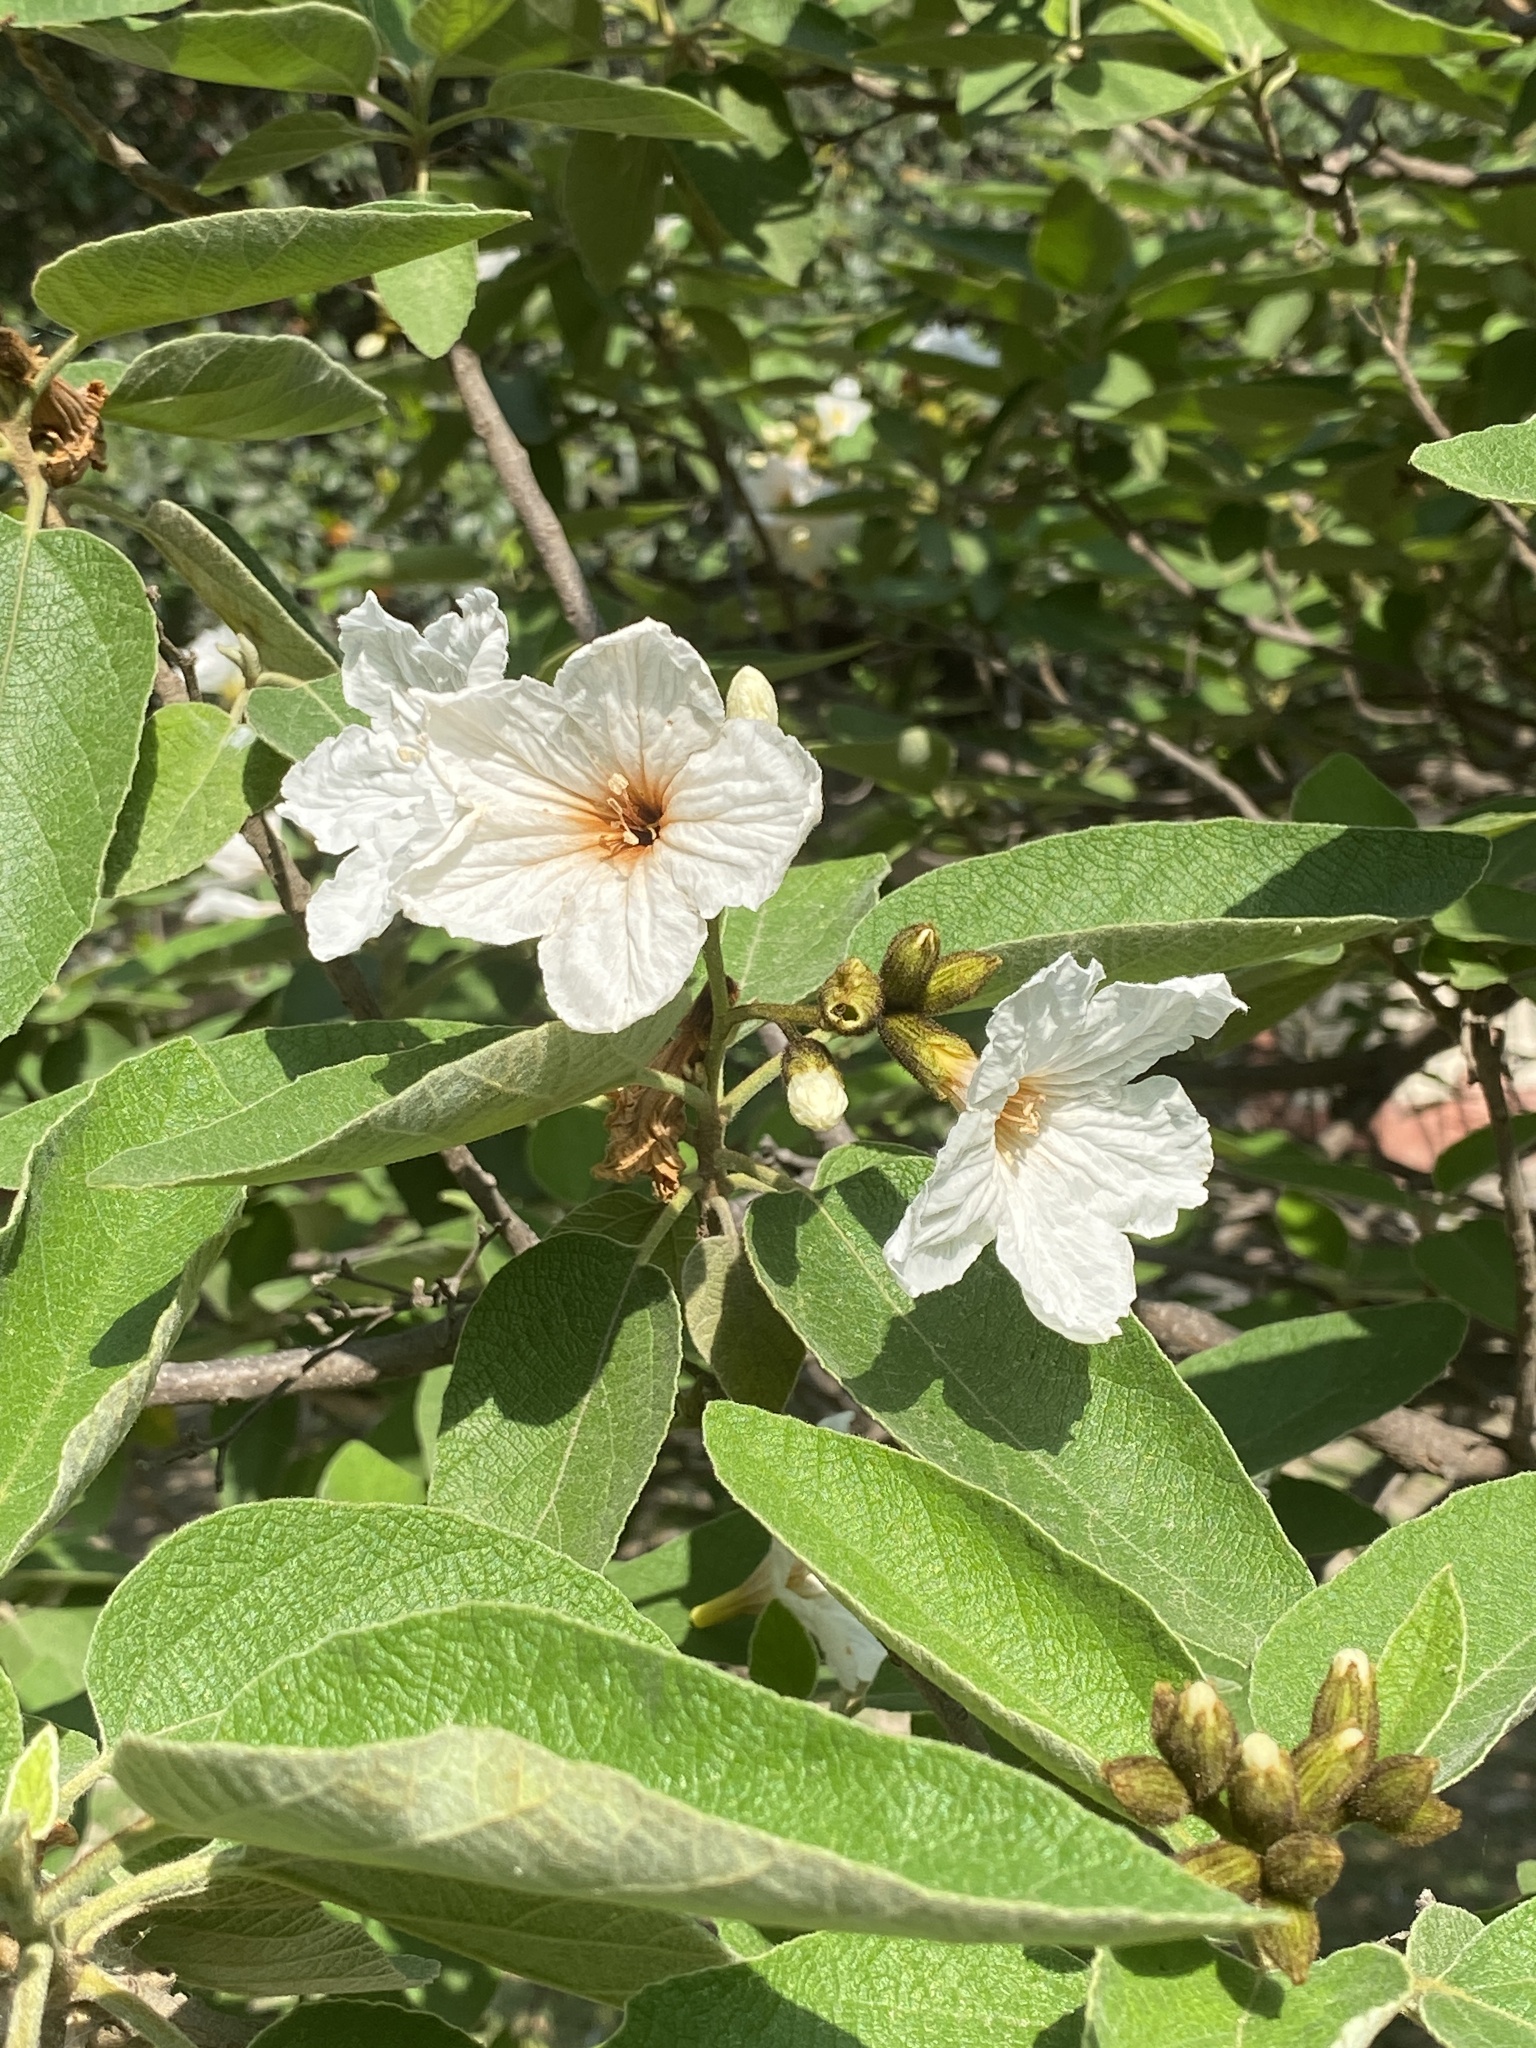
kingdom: Plantae
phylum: Tracheophyta
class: Magnoliopsida
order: Boraginales
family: Cordiaceae
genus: Cordia
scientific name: Cordia boissieri
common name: Mexican-olive
